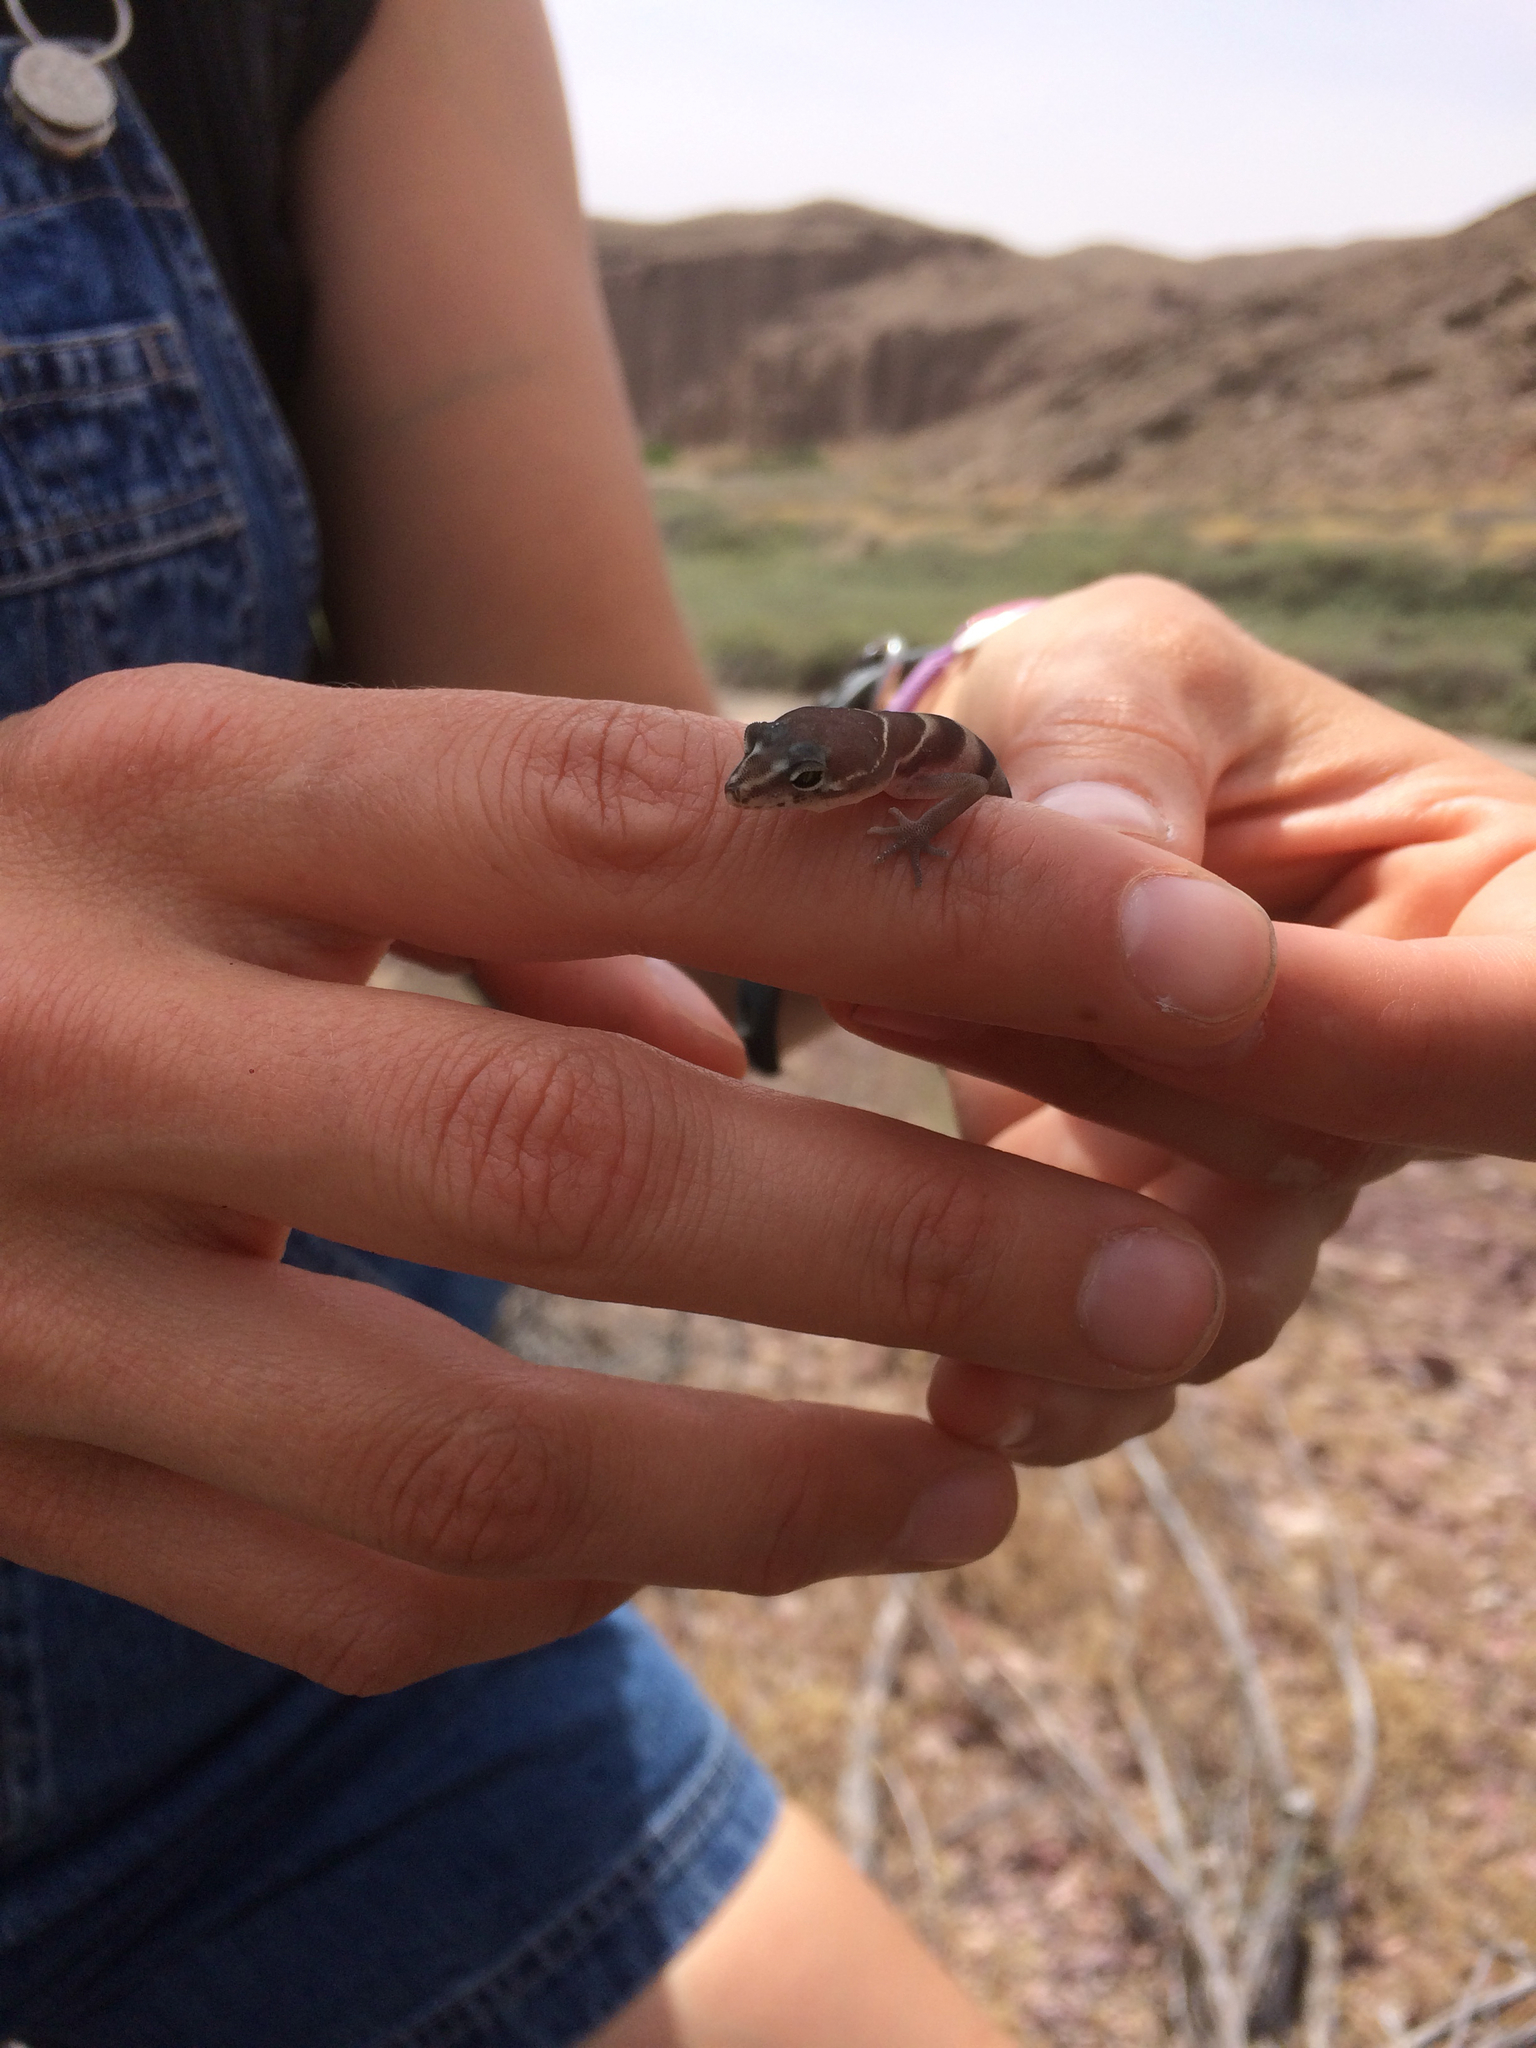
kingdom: Animalia
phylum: Chordata
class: Squamata
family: Eublepharidae
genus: Coleonyx
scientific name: Coleonyx variegatus
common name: Western banded gecko
